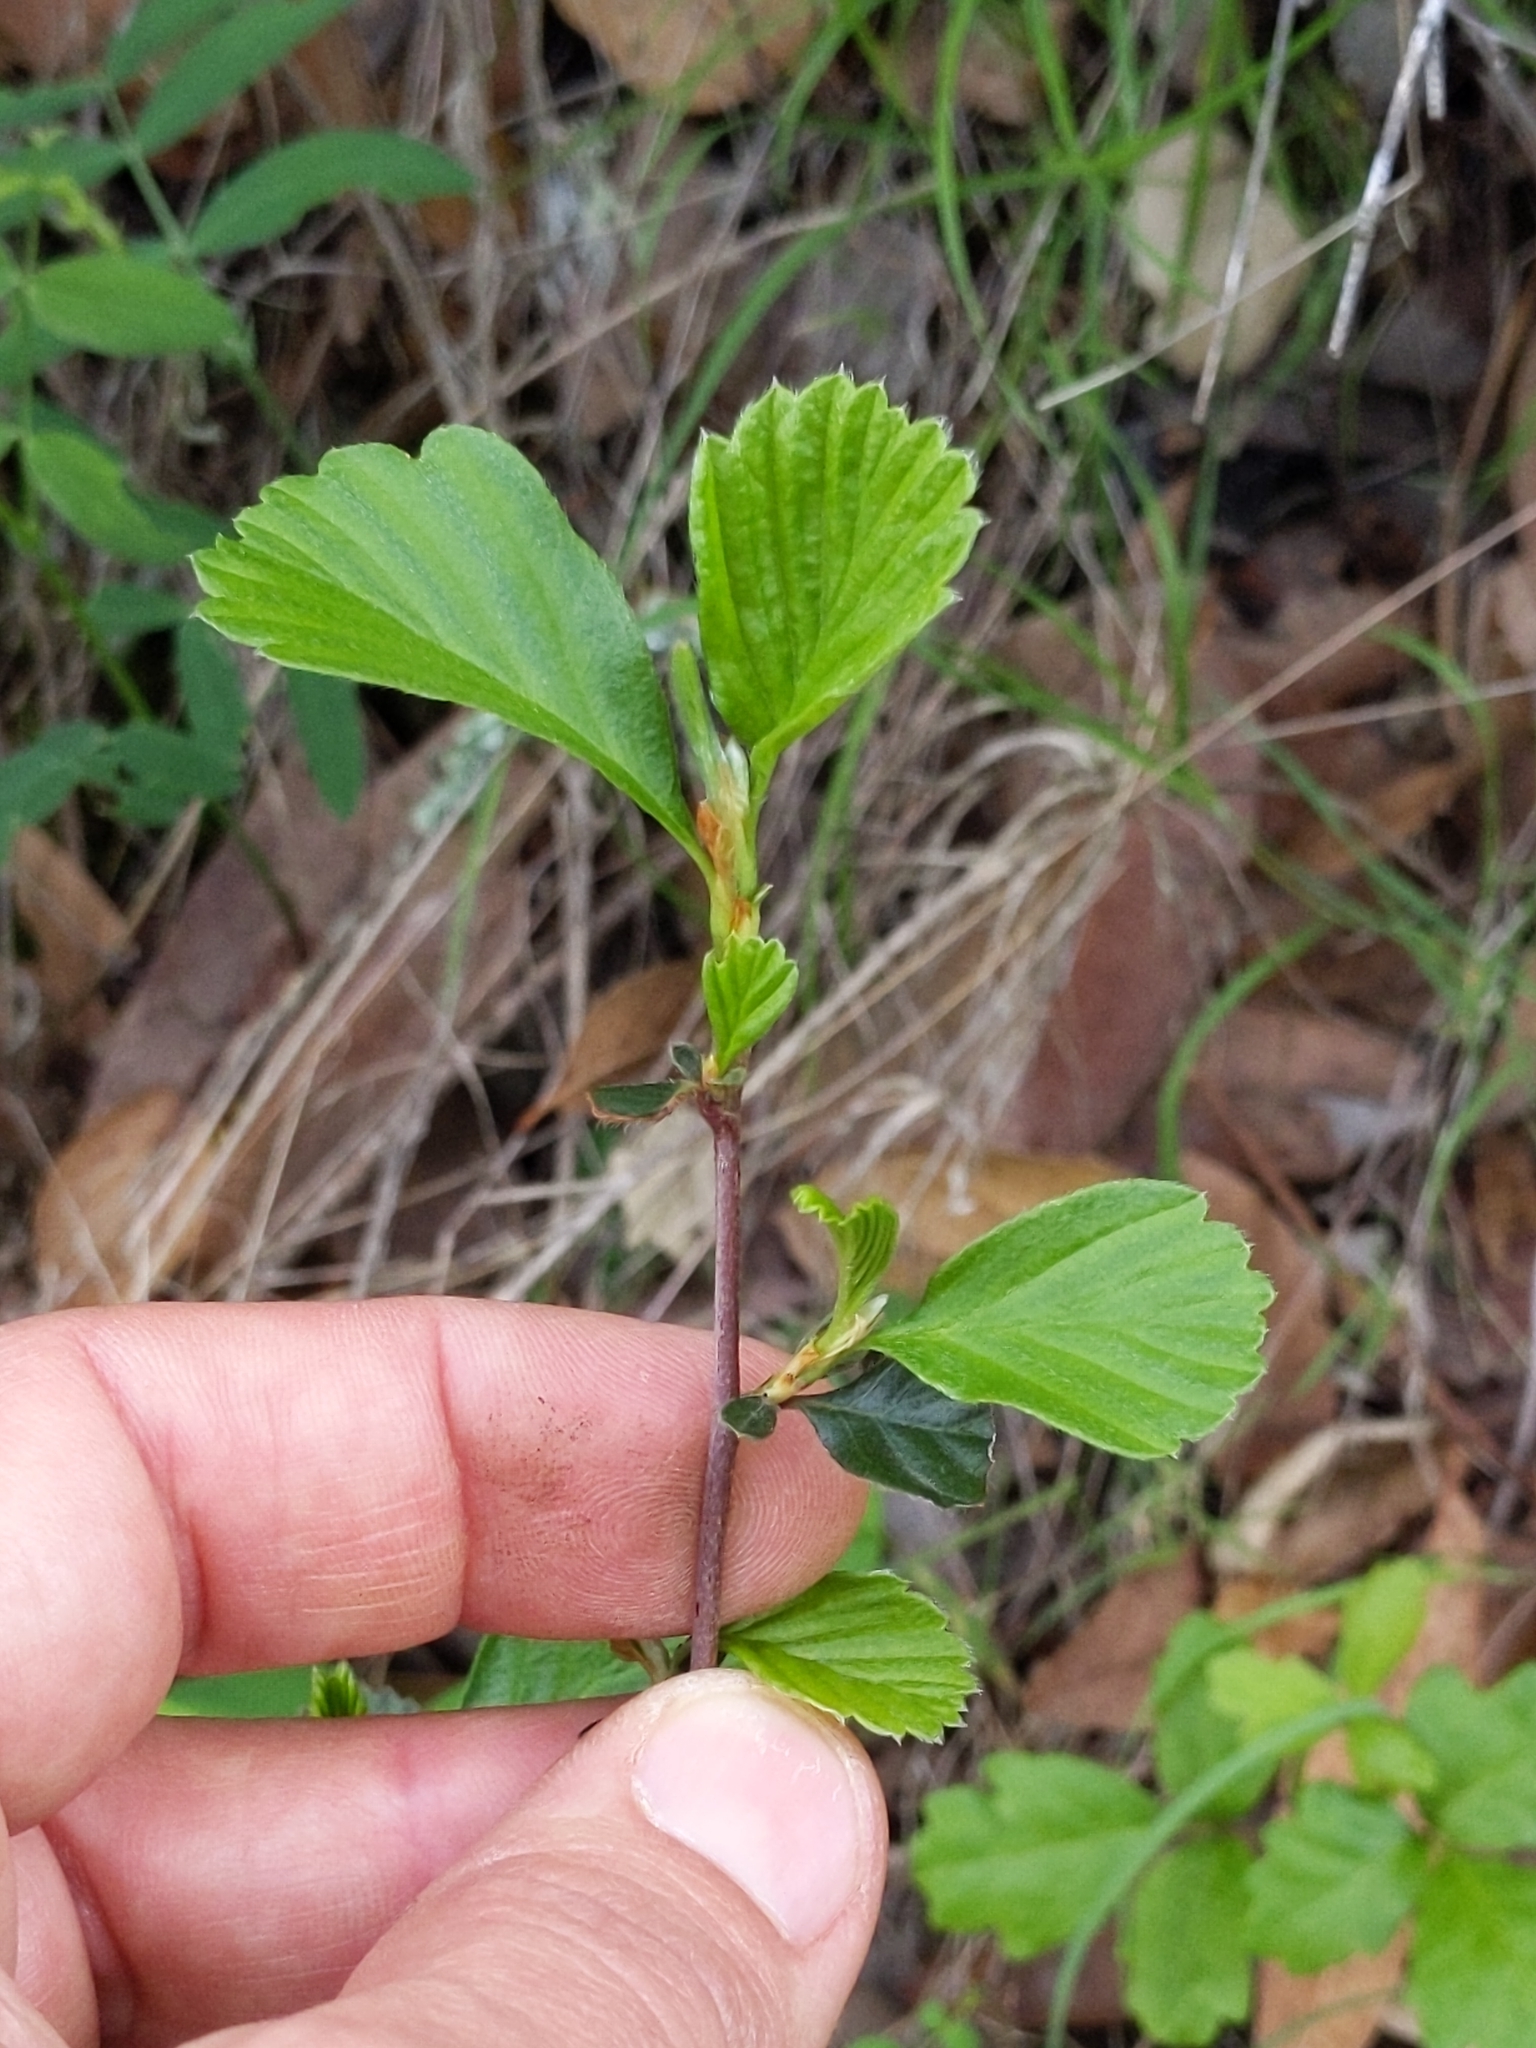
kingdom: Plantae
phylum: Tracheophyta
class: Magnoliopsida
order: Rosales
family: Rosaceae
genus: Cercocarpus
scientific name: Cercocarpus betuloides
